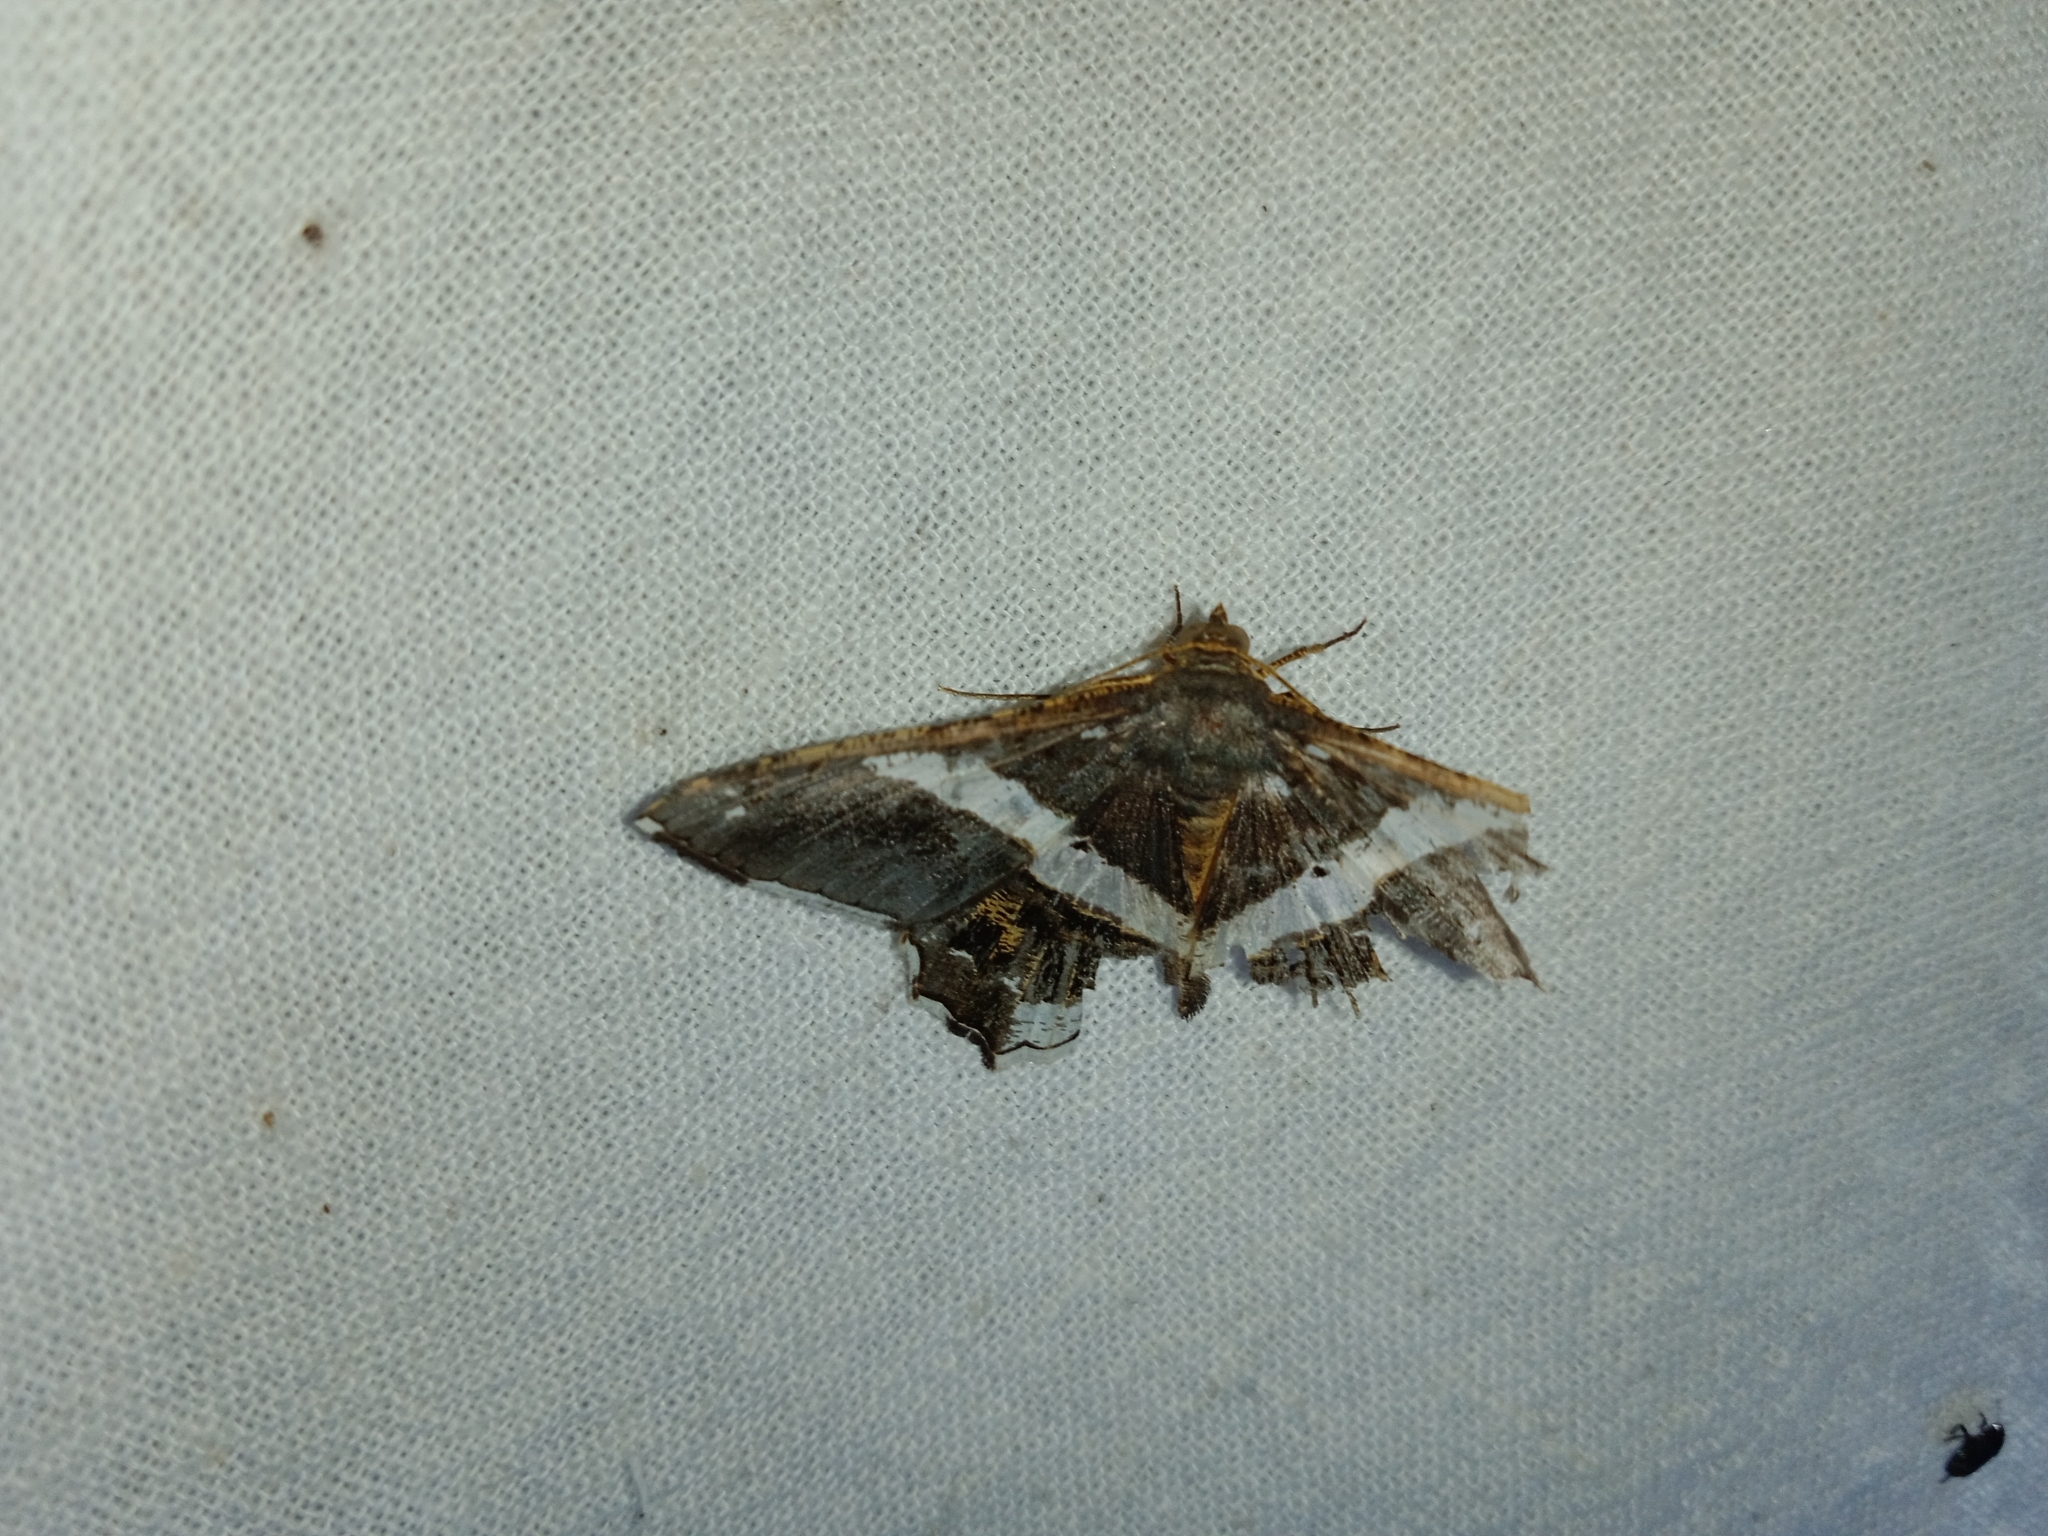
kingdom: Animalia
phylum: Arthropoda
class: Insecta
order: Lepidoptera
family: Geometridae
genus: Chiasmia
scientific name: Chiasmia nora
